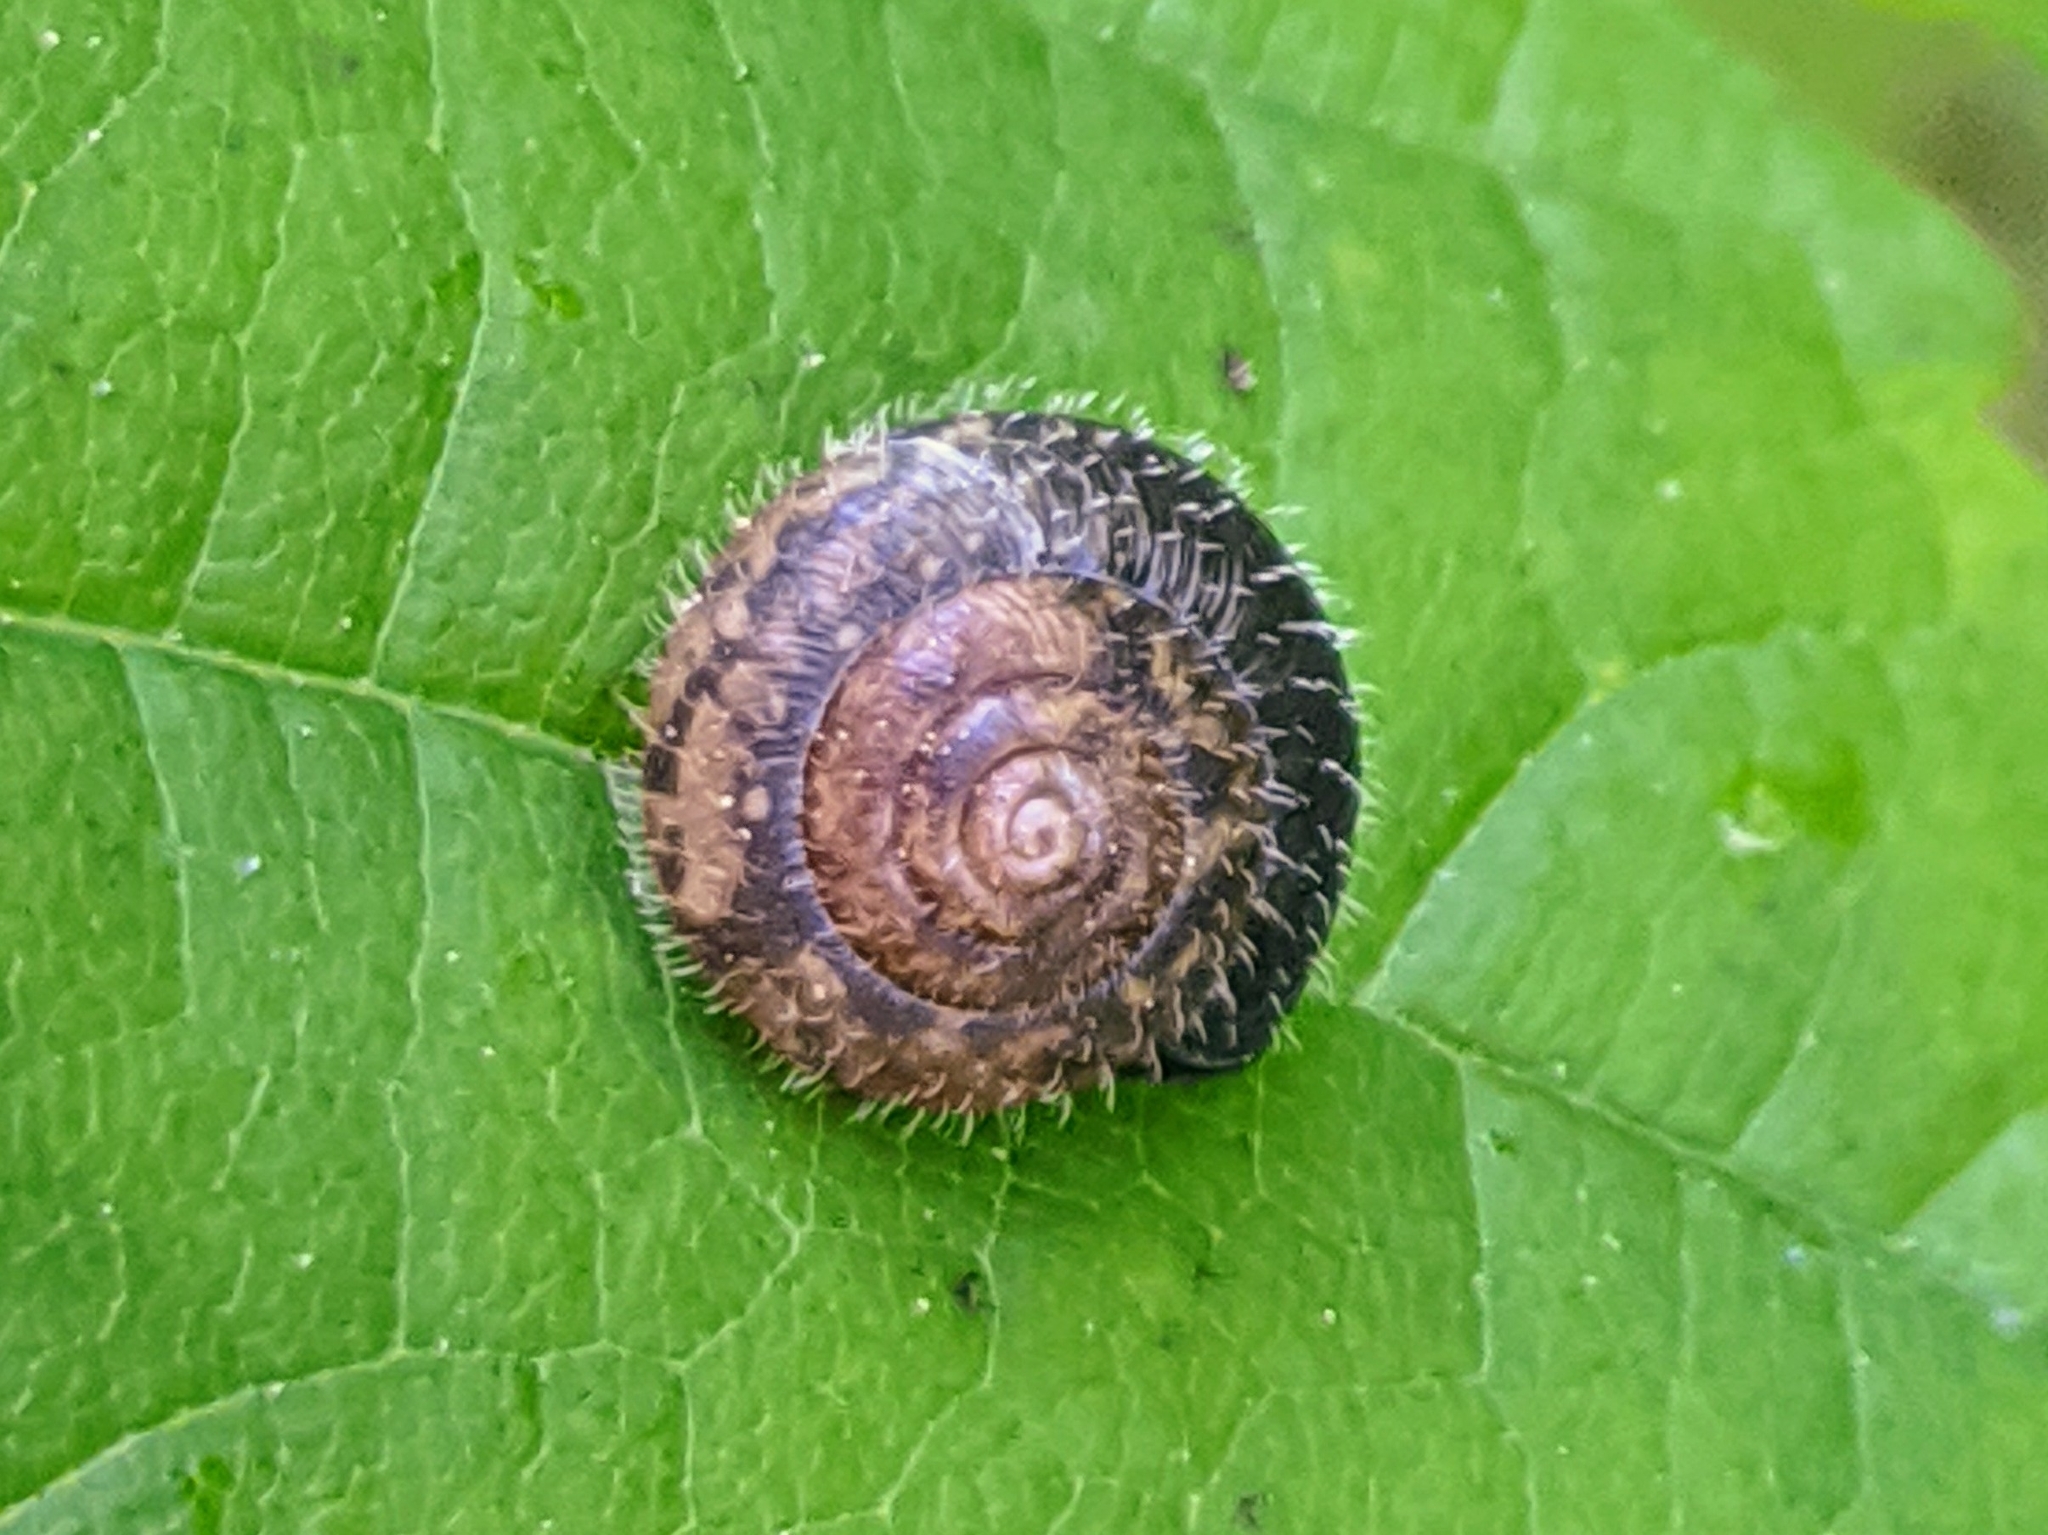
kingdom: Animalia
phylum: Mollusca
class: Gastropoda
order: Stylommatophora
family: Hygromiidae
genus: Trochulus
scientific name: Trochulus hispidus
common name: Hairy snail
